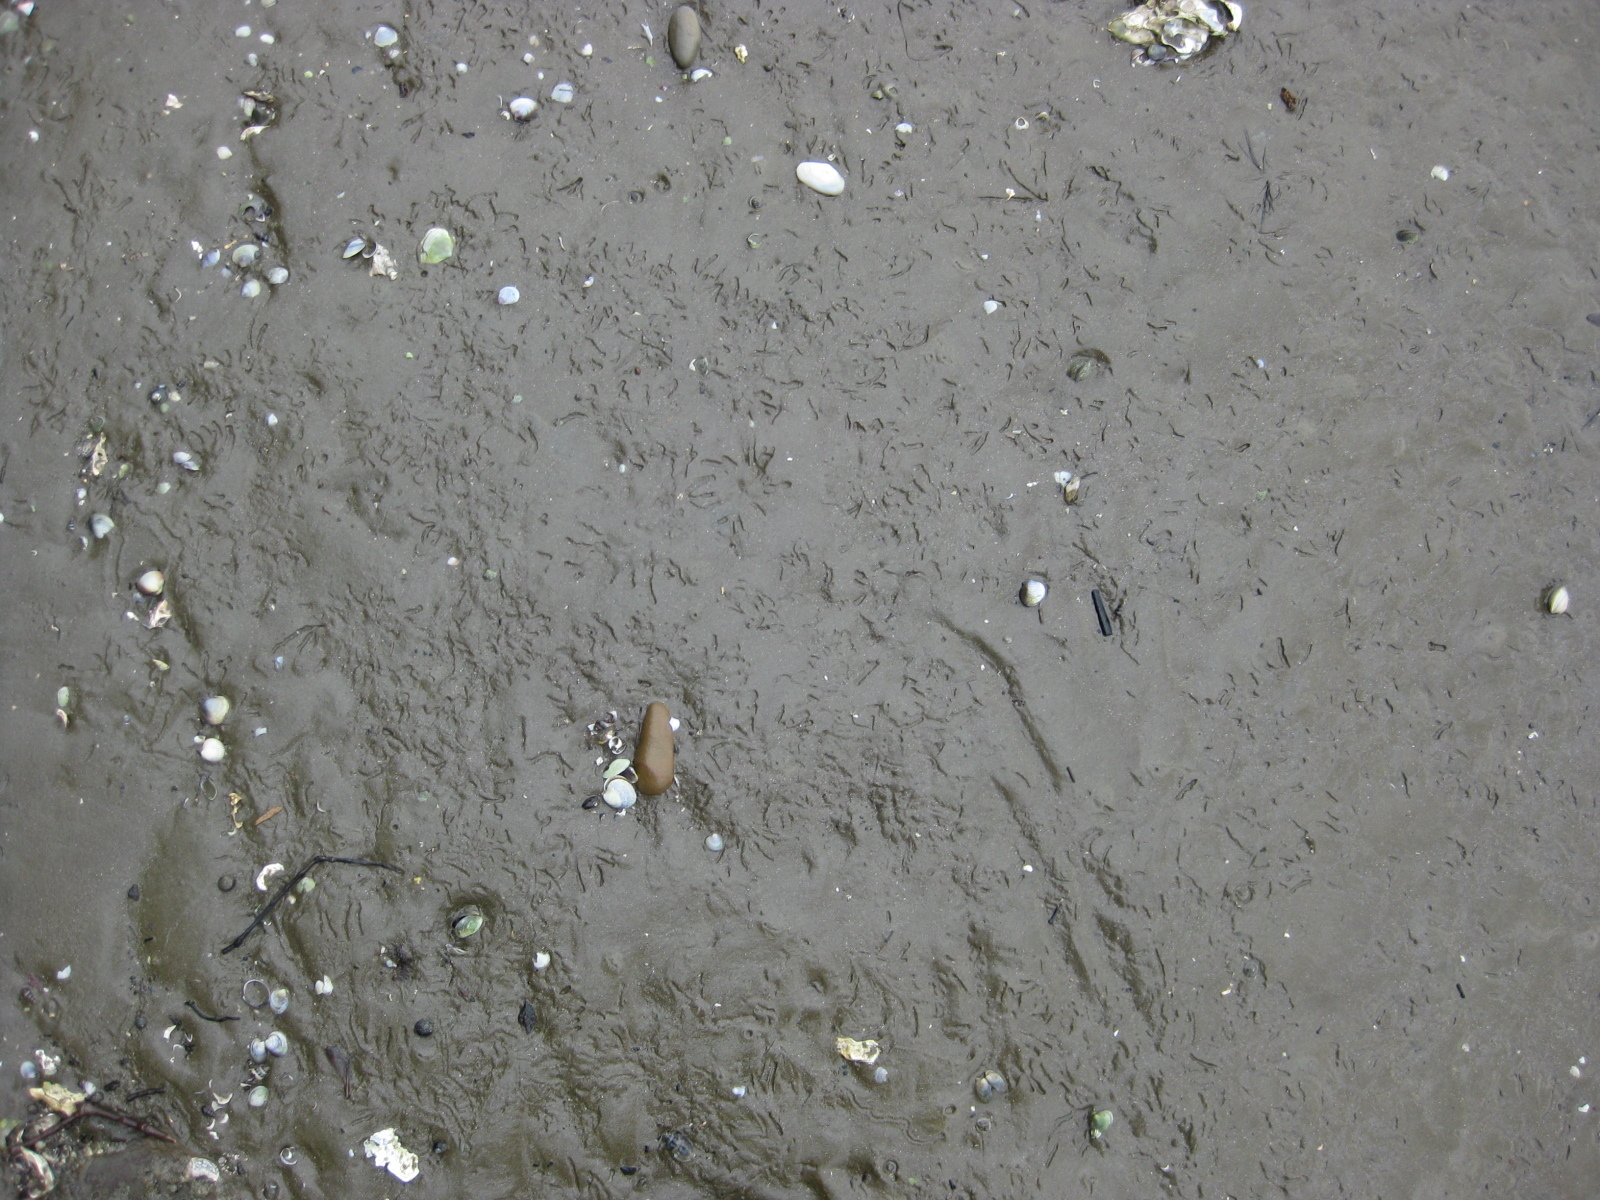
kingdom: Animalia
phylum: Mollusca
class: Bivalvia
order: Cardiida
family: Tellinidae
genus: Macomona
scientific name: Macomona liliana
